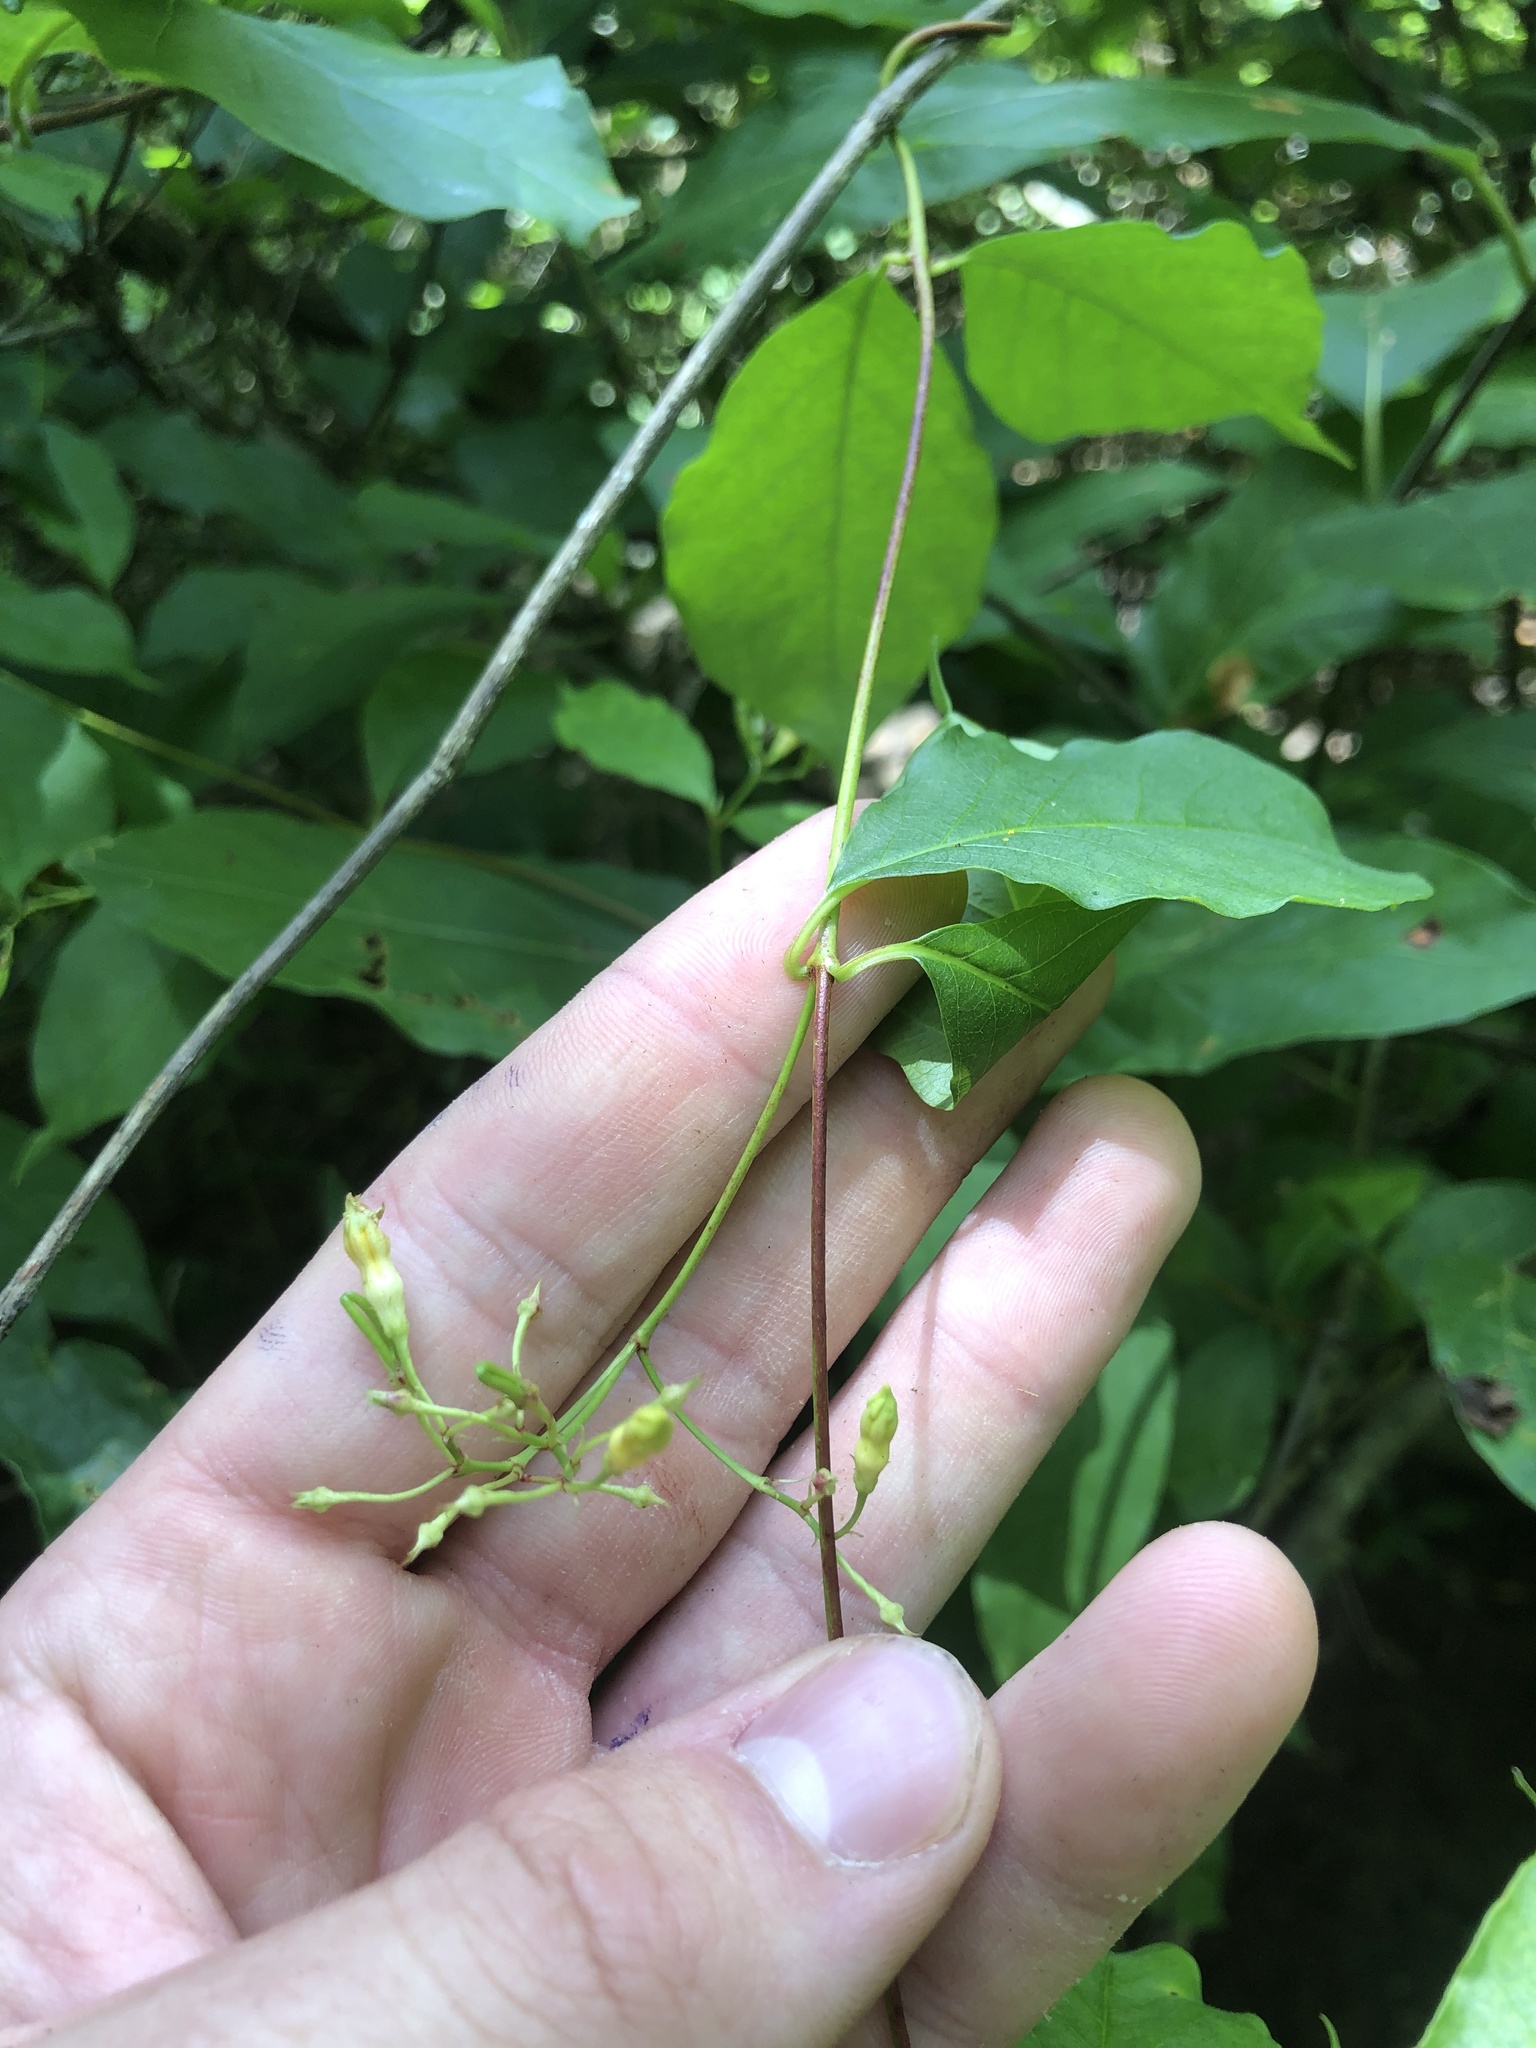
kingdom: Plantae
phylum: Tracheophyta
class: Magnoliopsida
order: Gentianales
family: Apocynaceae
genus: Thyrsanthella
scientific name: Thyrsanthella difformis
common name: Climbing dogbane
